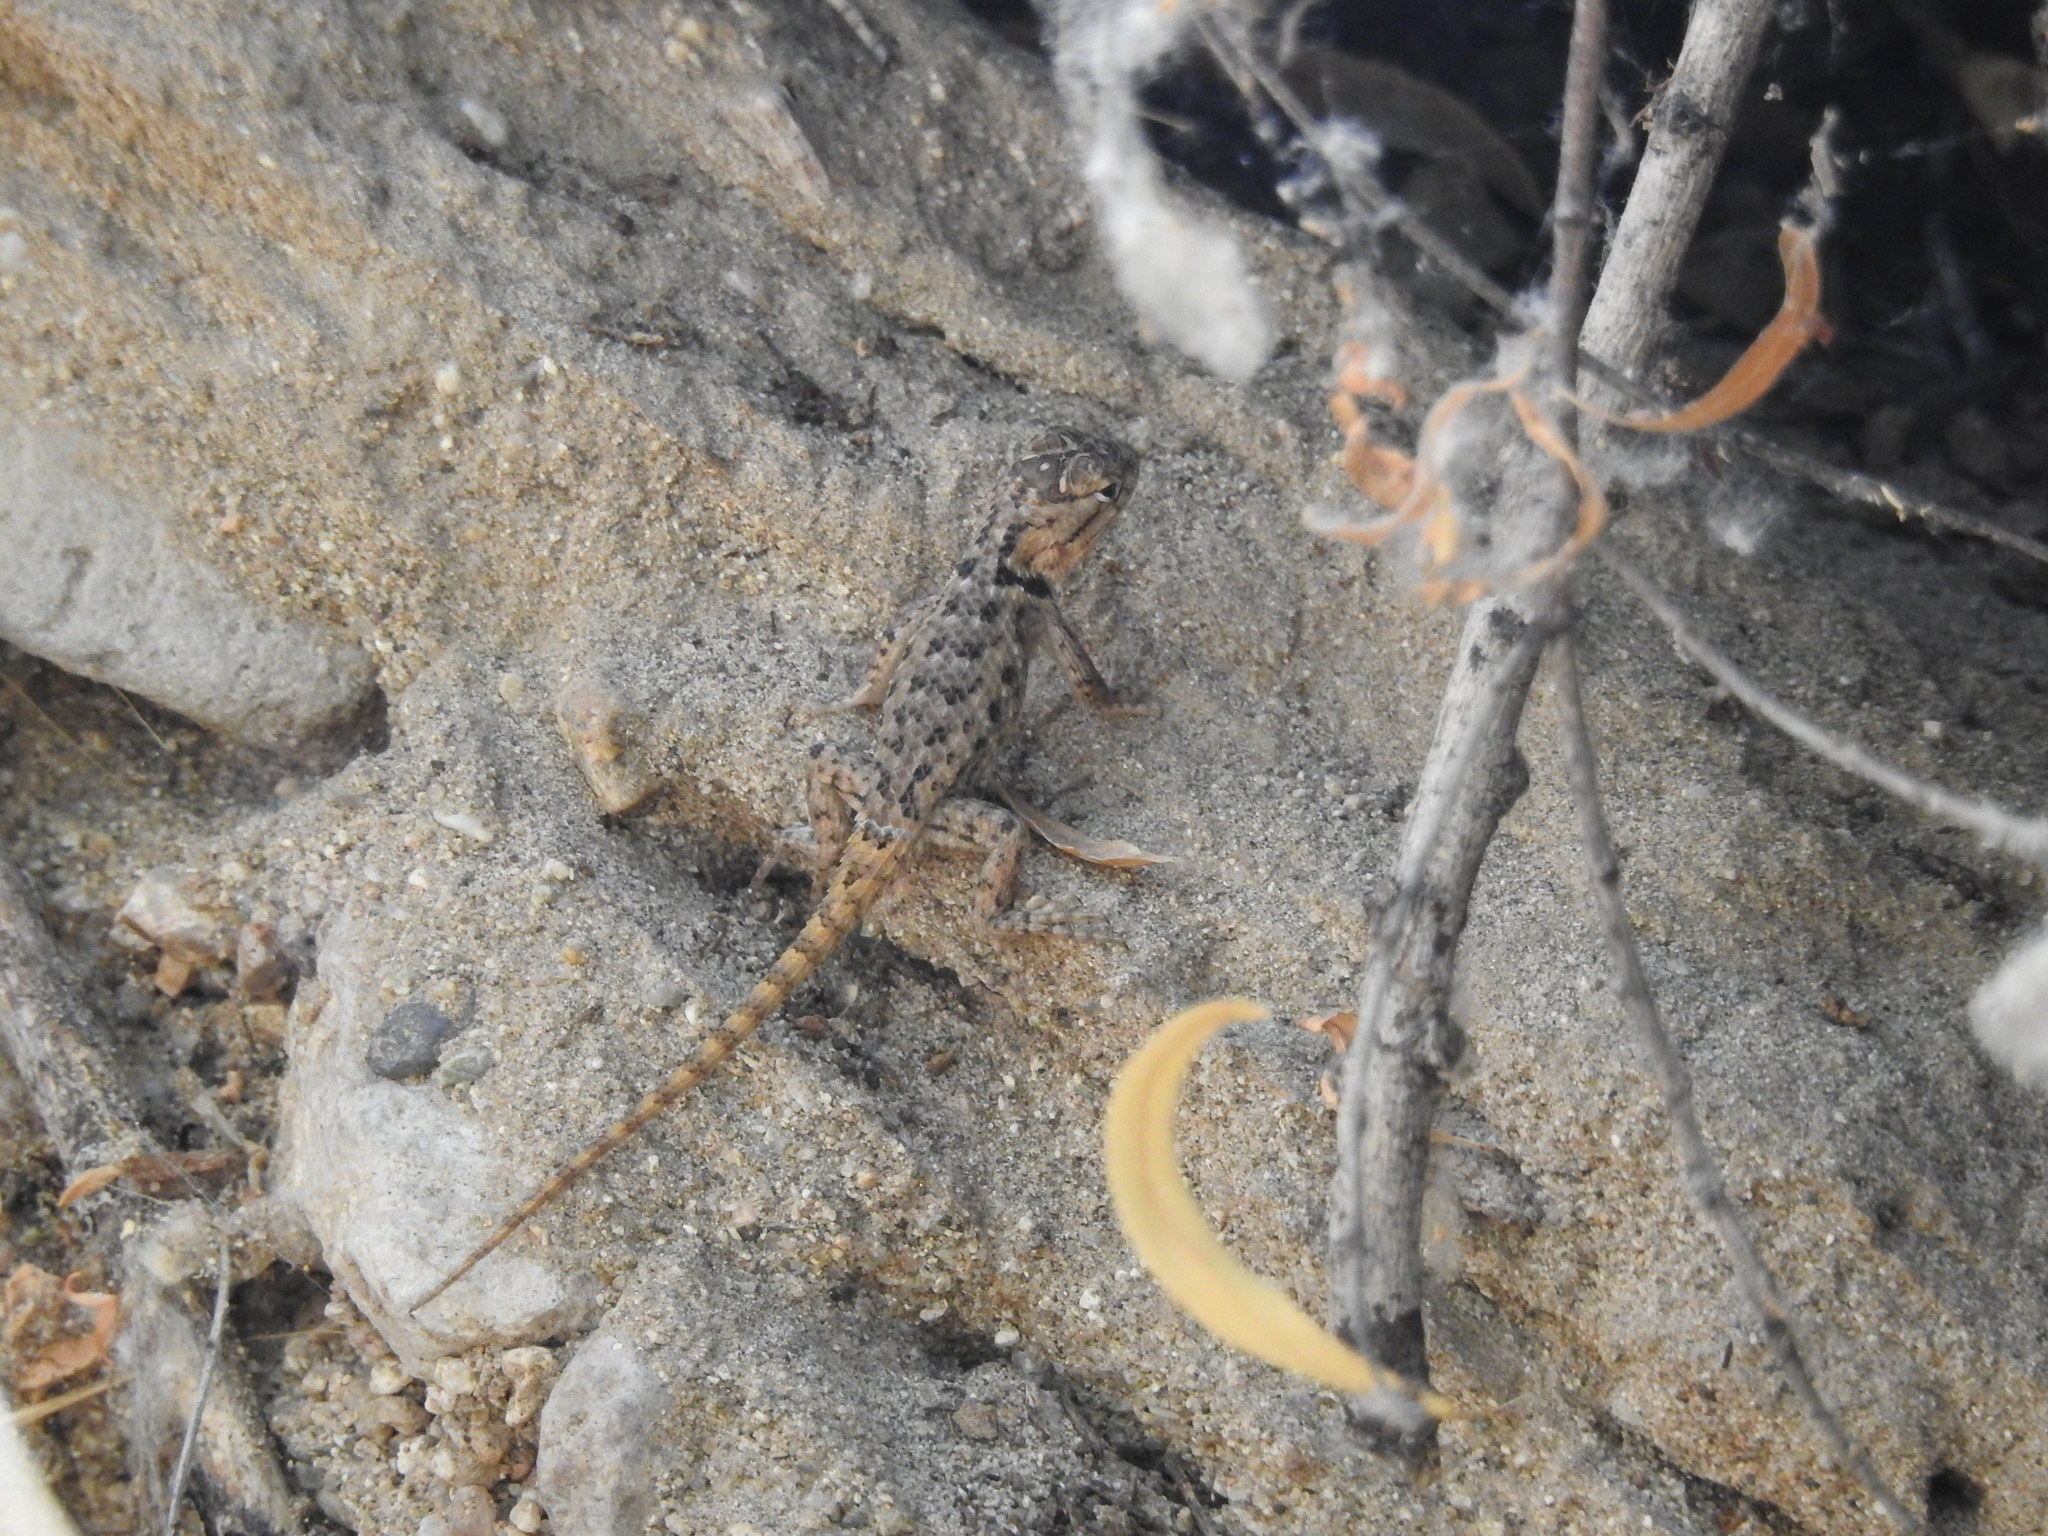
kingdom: Animalia
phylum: Chordata
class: Squamata
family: Phrynosomatidae
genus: Sceloporus
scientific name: Sceloporus magister
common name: Desert spiny lizard
